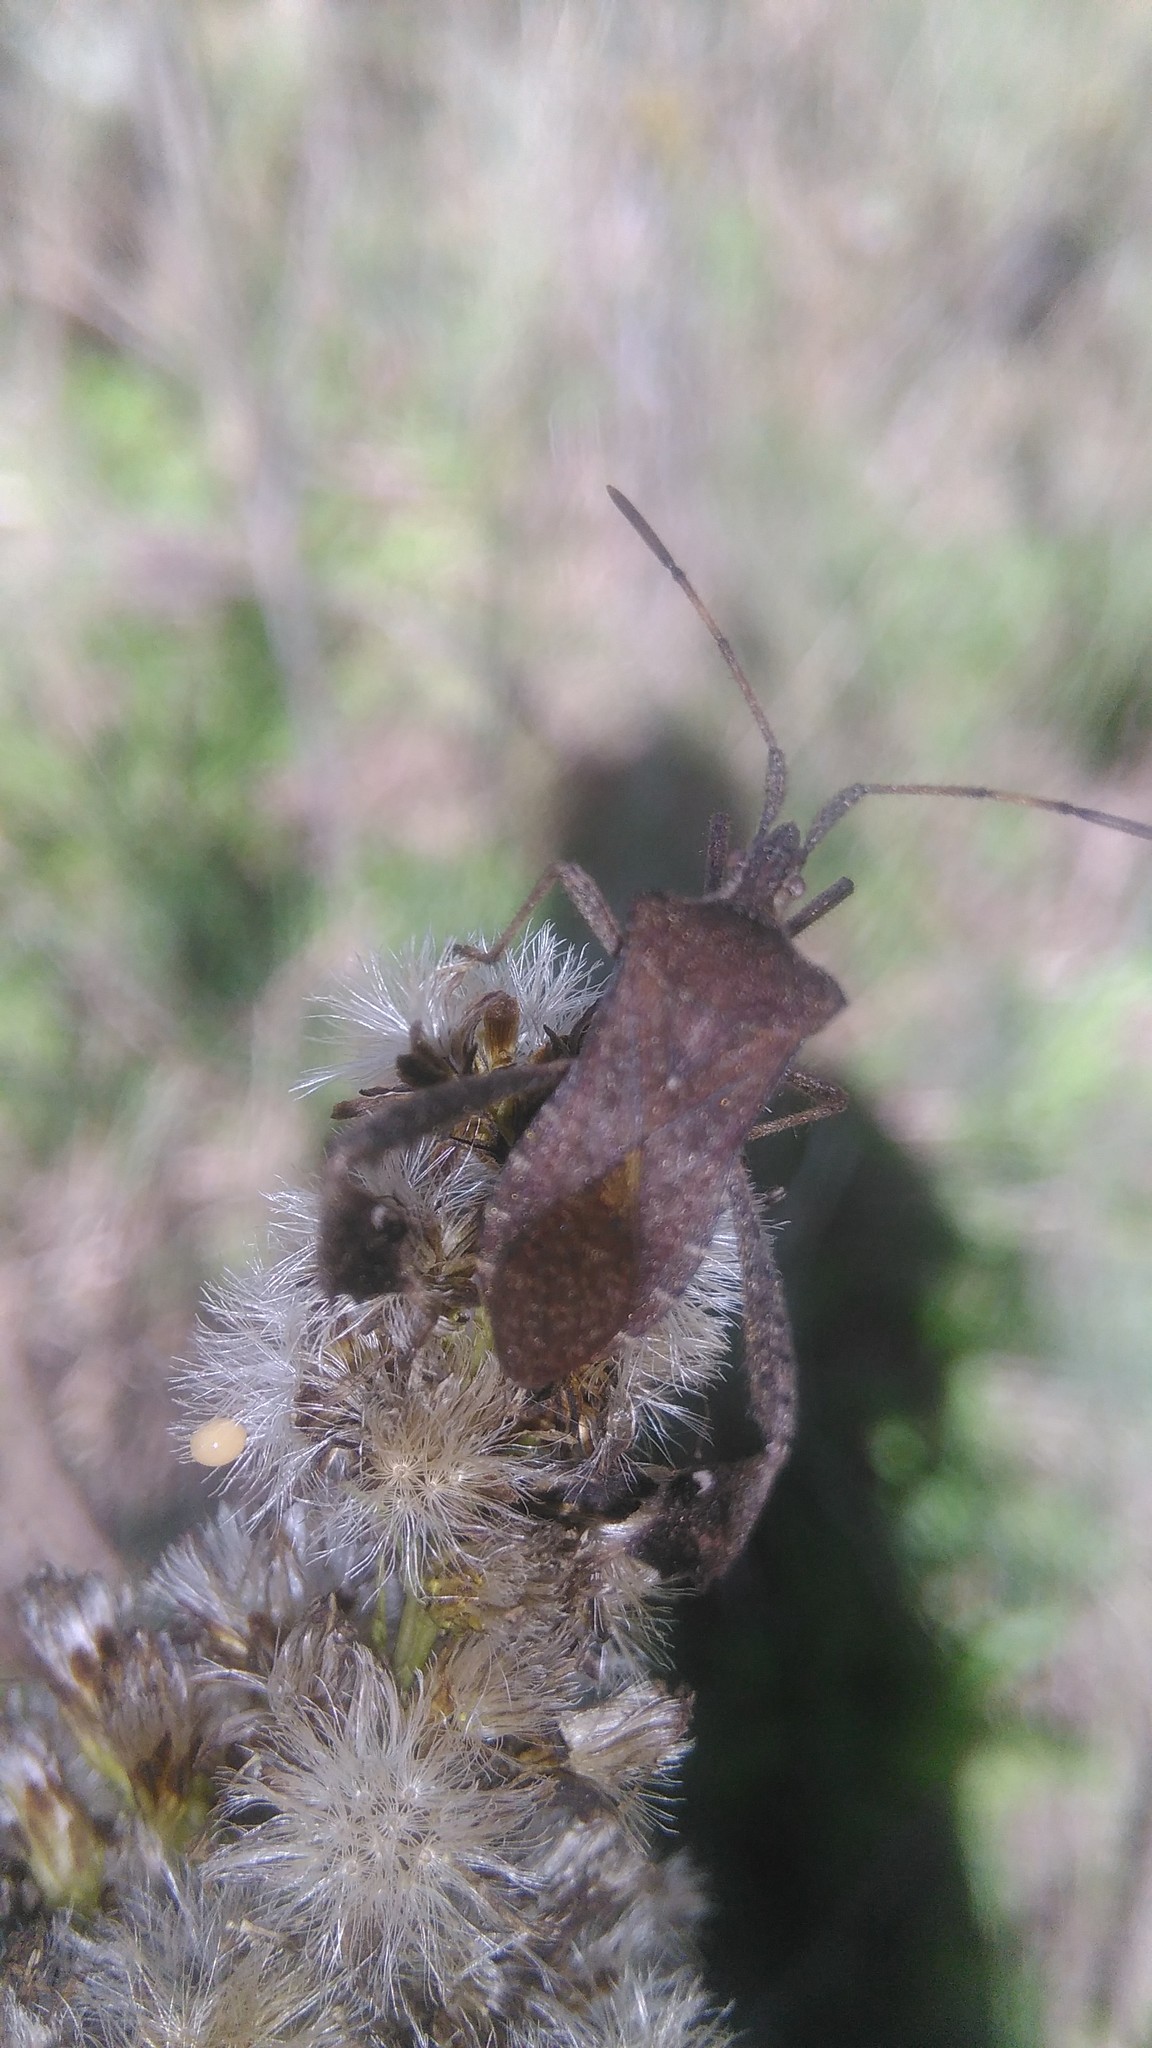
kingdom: Animalia
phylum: Arthropoda
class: Insecta
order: Hemiptera
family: Coreidae
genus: Leptoglossus
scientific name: Leptoglossus concaviusculus
